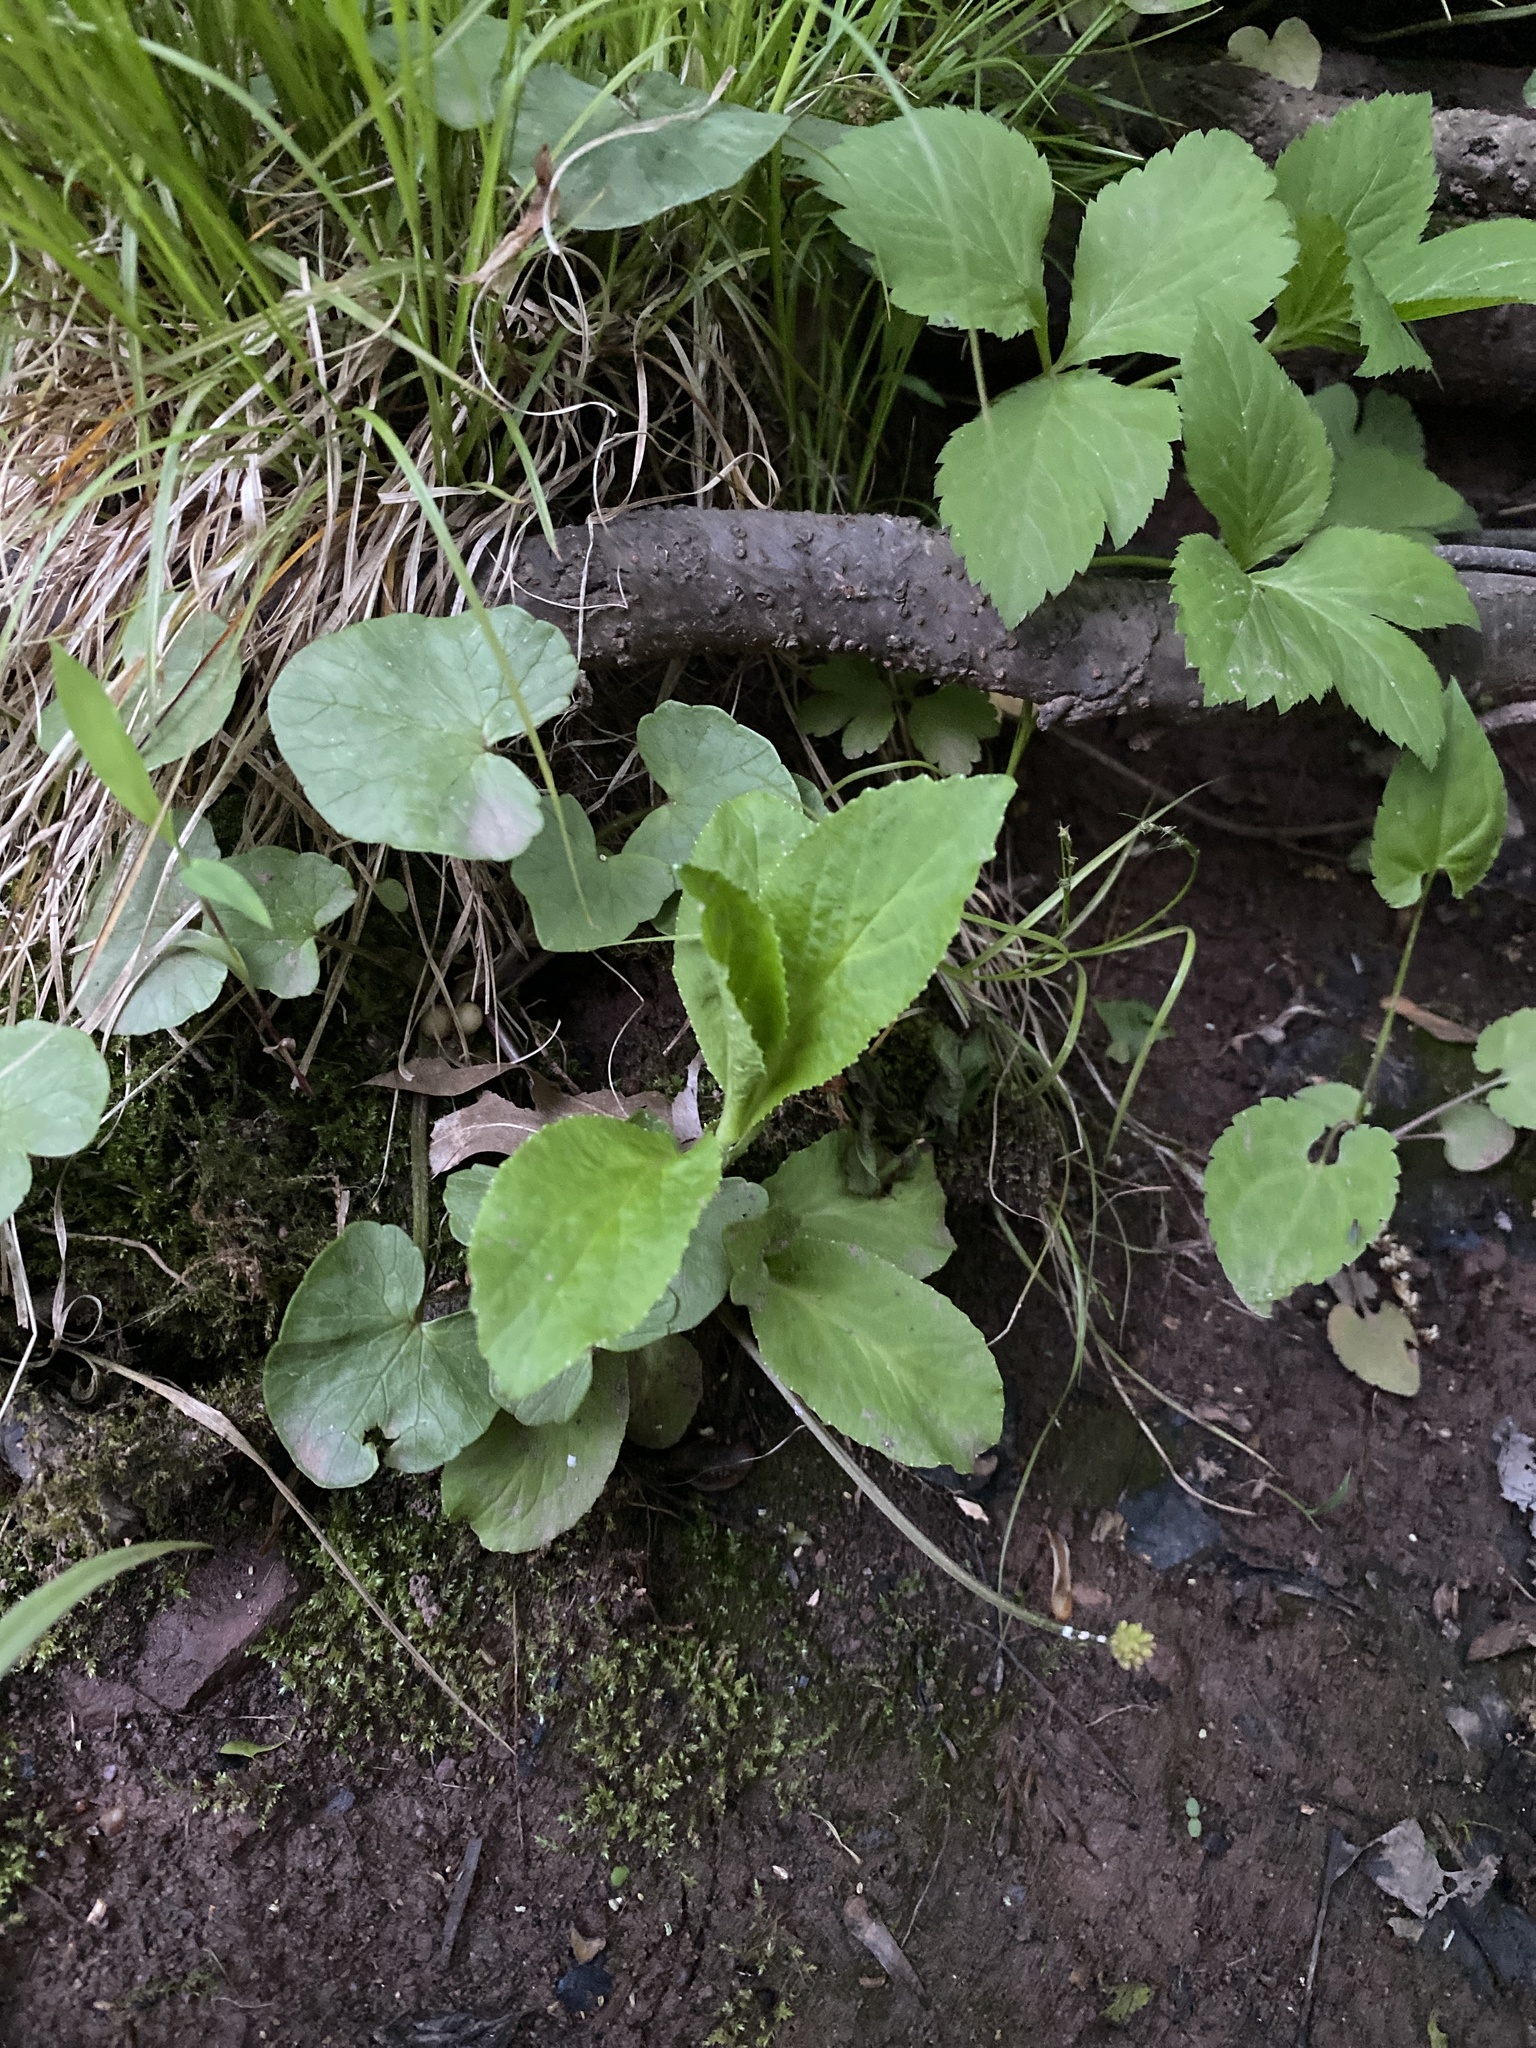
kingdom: Plantae
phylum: Tracheophyta
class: Magnoliopsida
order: Asterales
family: Campanulaceae
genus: Lobelia
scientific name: Lobelia inflata
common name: Indian tobacco
